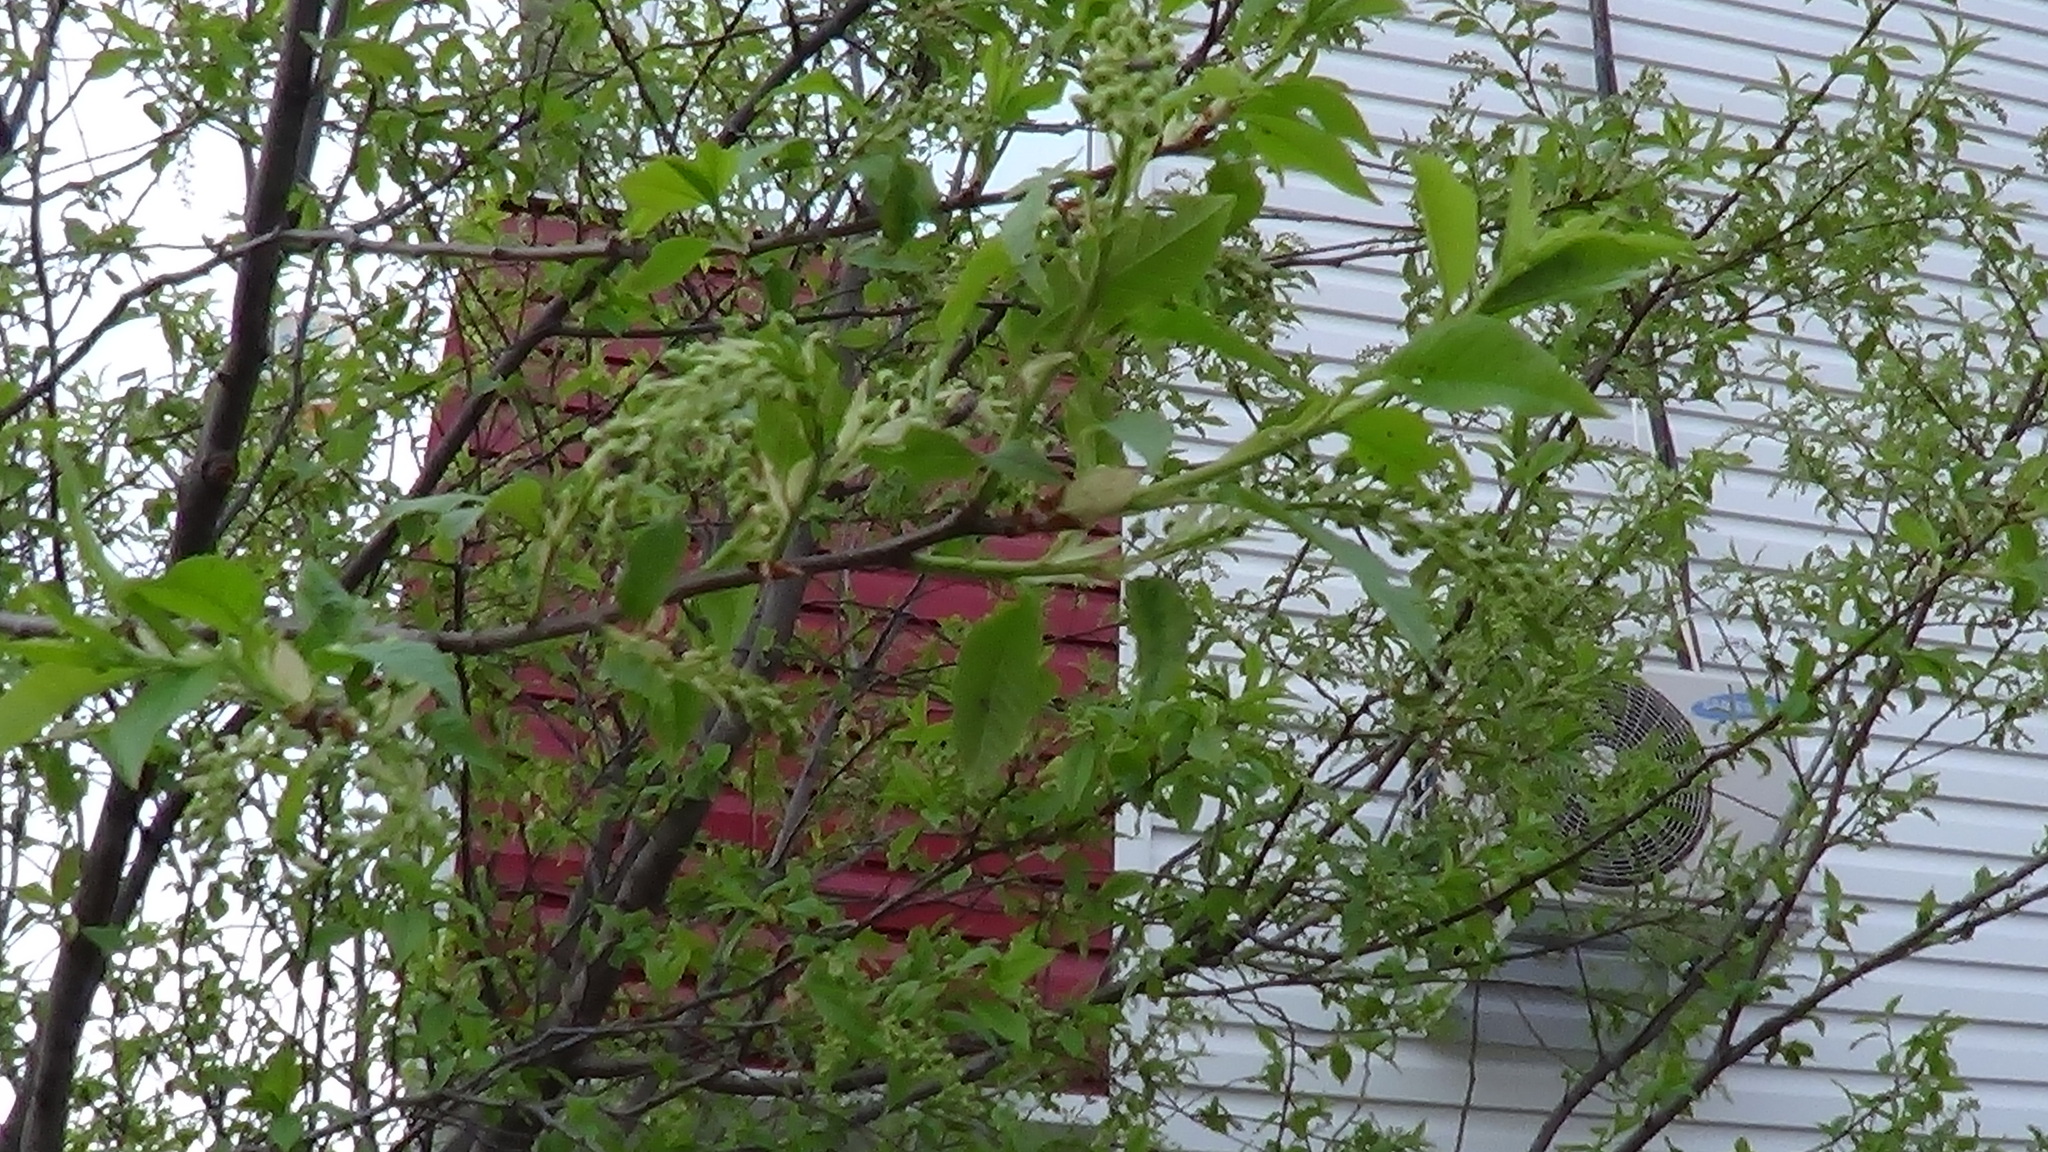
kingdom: Plantae
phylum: Tracheophyta
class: Magnoliopsida
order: Rosales
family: Rosaceae
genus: Prunus
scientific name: Prunus padus
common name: Bird cherry
